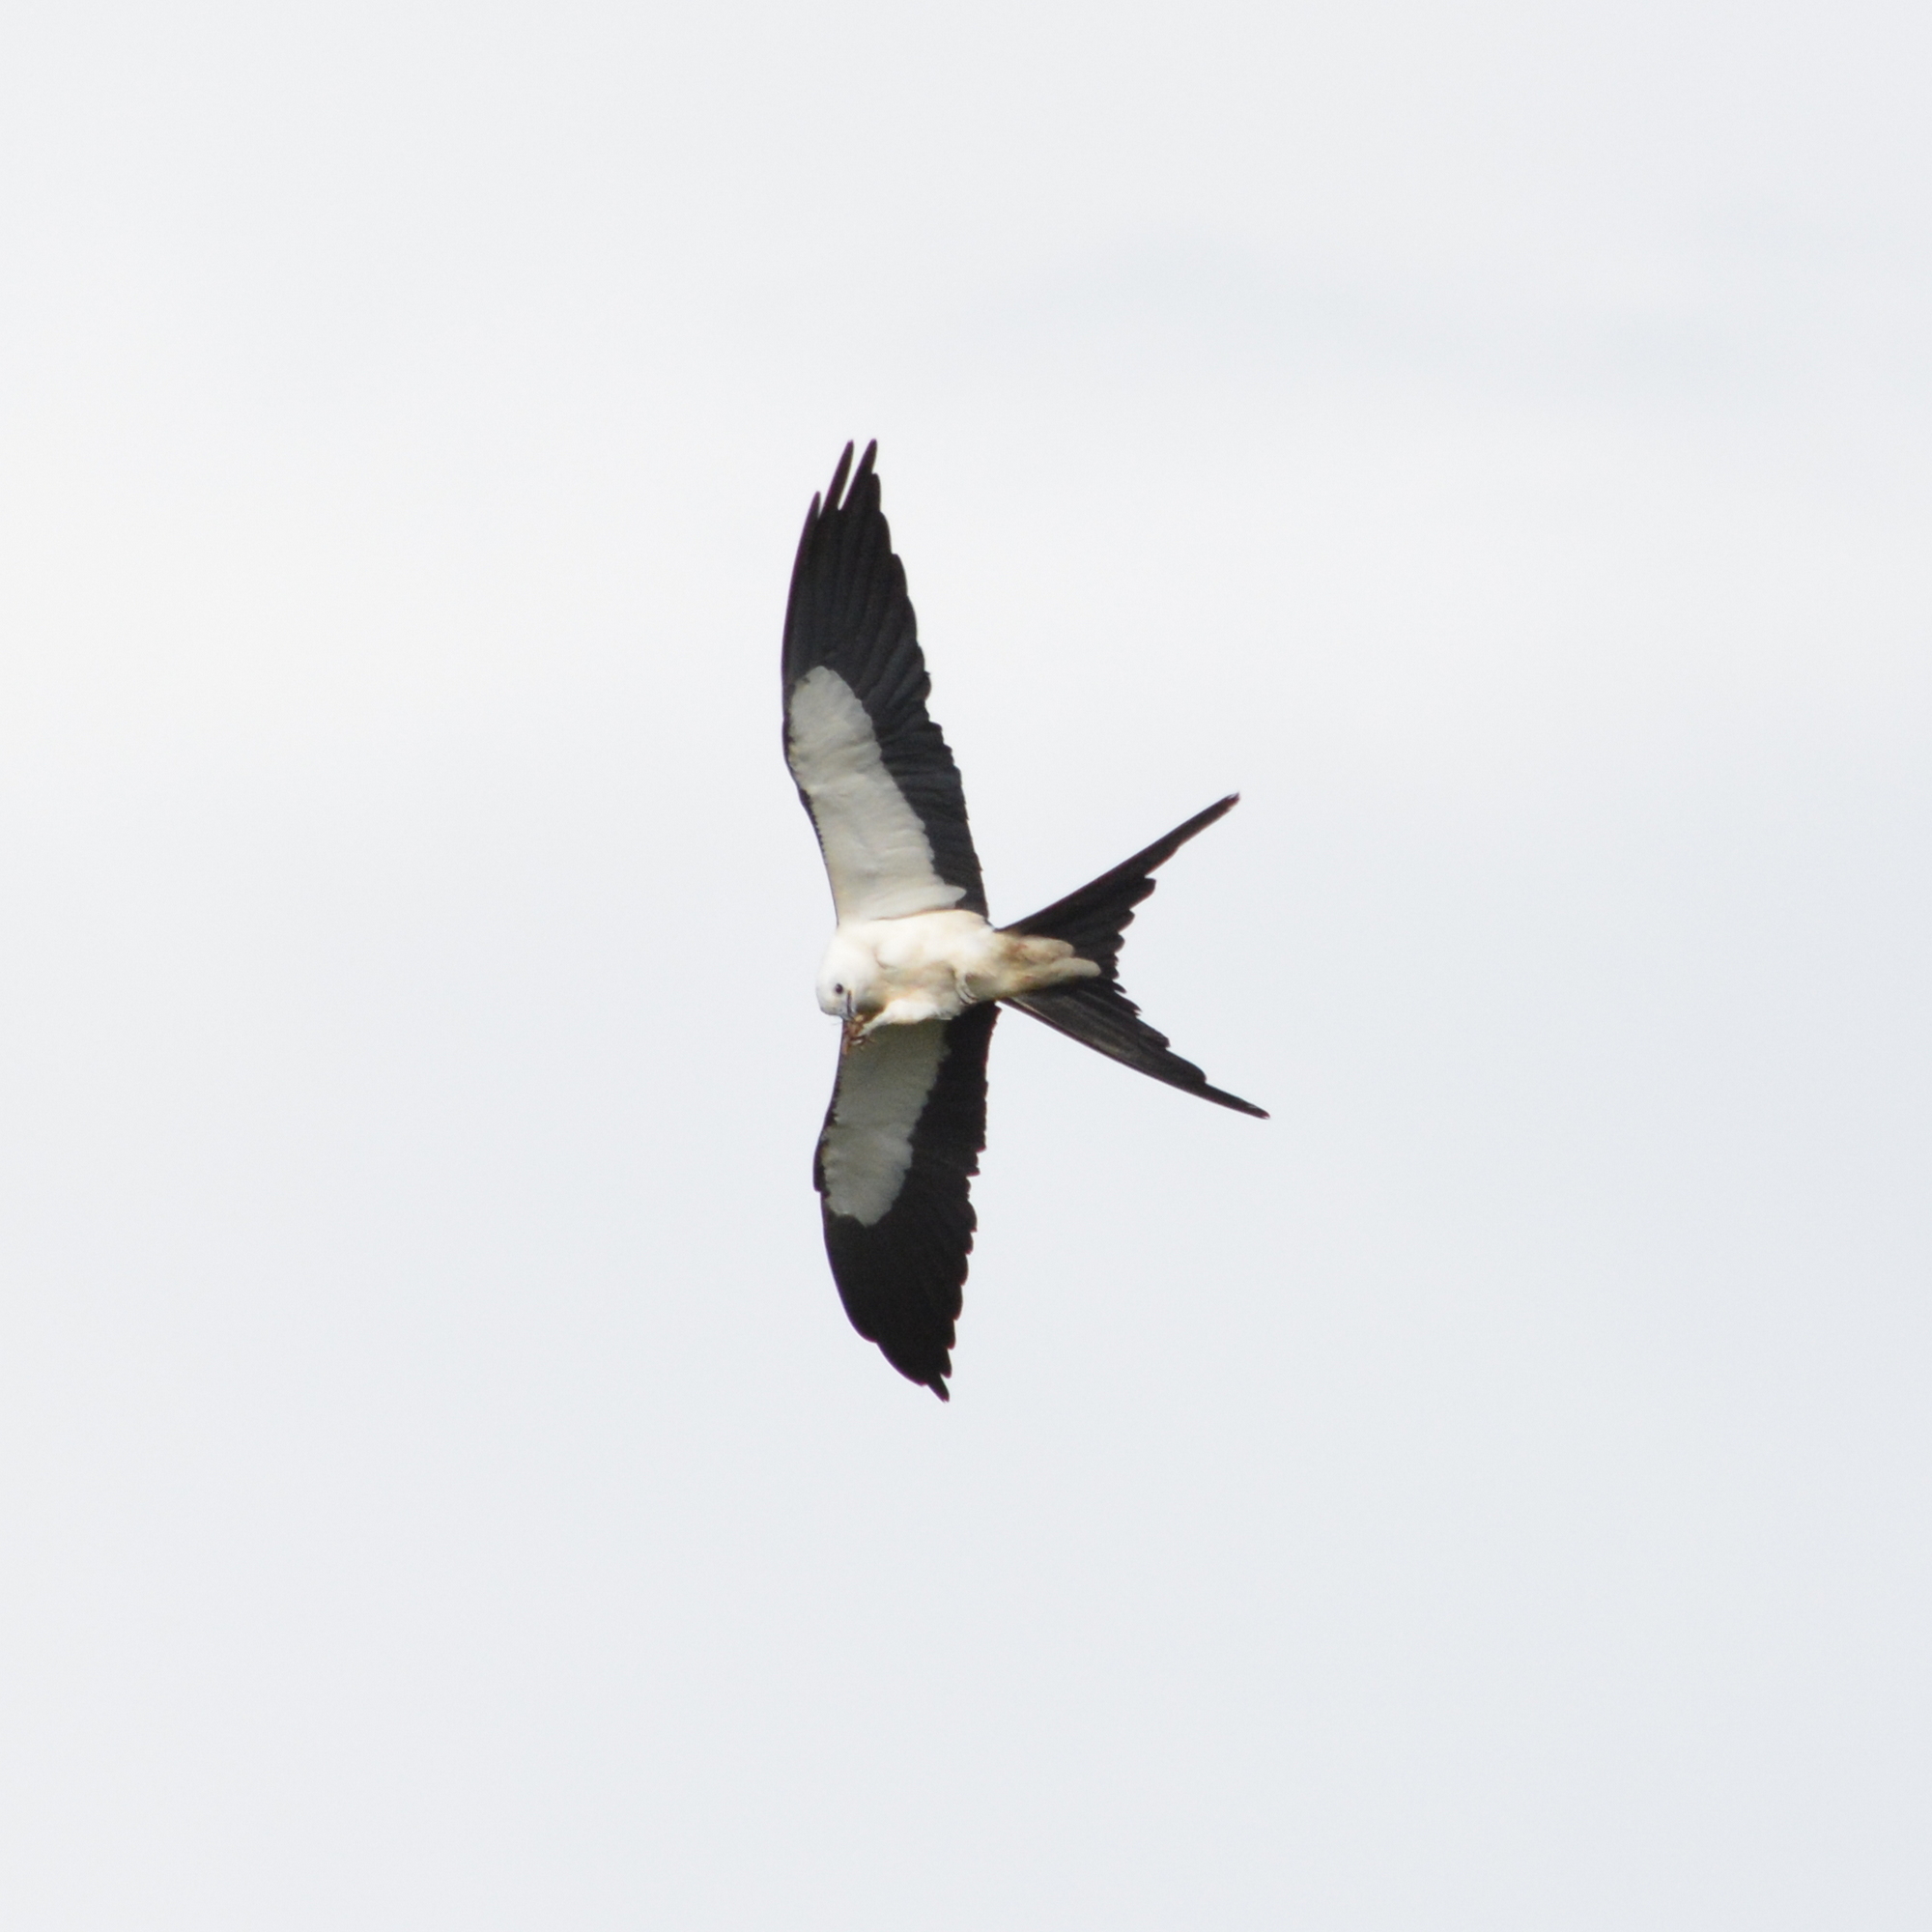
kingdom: Animalia
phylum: Chordata
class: Aves
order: Accipitriformes
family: Accipitridae
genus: Elanoides
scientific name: Elanoides forficatus
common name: Swallow-tailed kite
